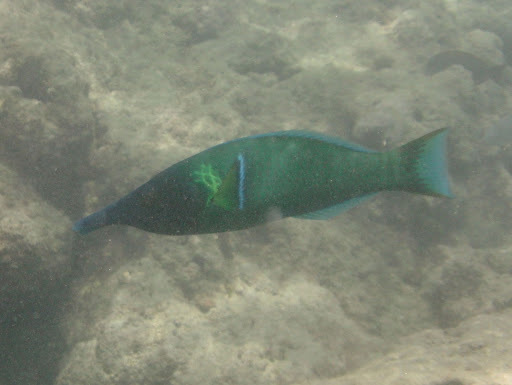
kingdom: Animalia
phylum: Chordata
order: Perciformes
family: Labridae
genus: Gomphosus
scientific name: Gomphosus varius
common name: Bird wrasse
